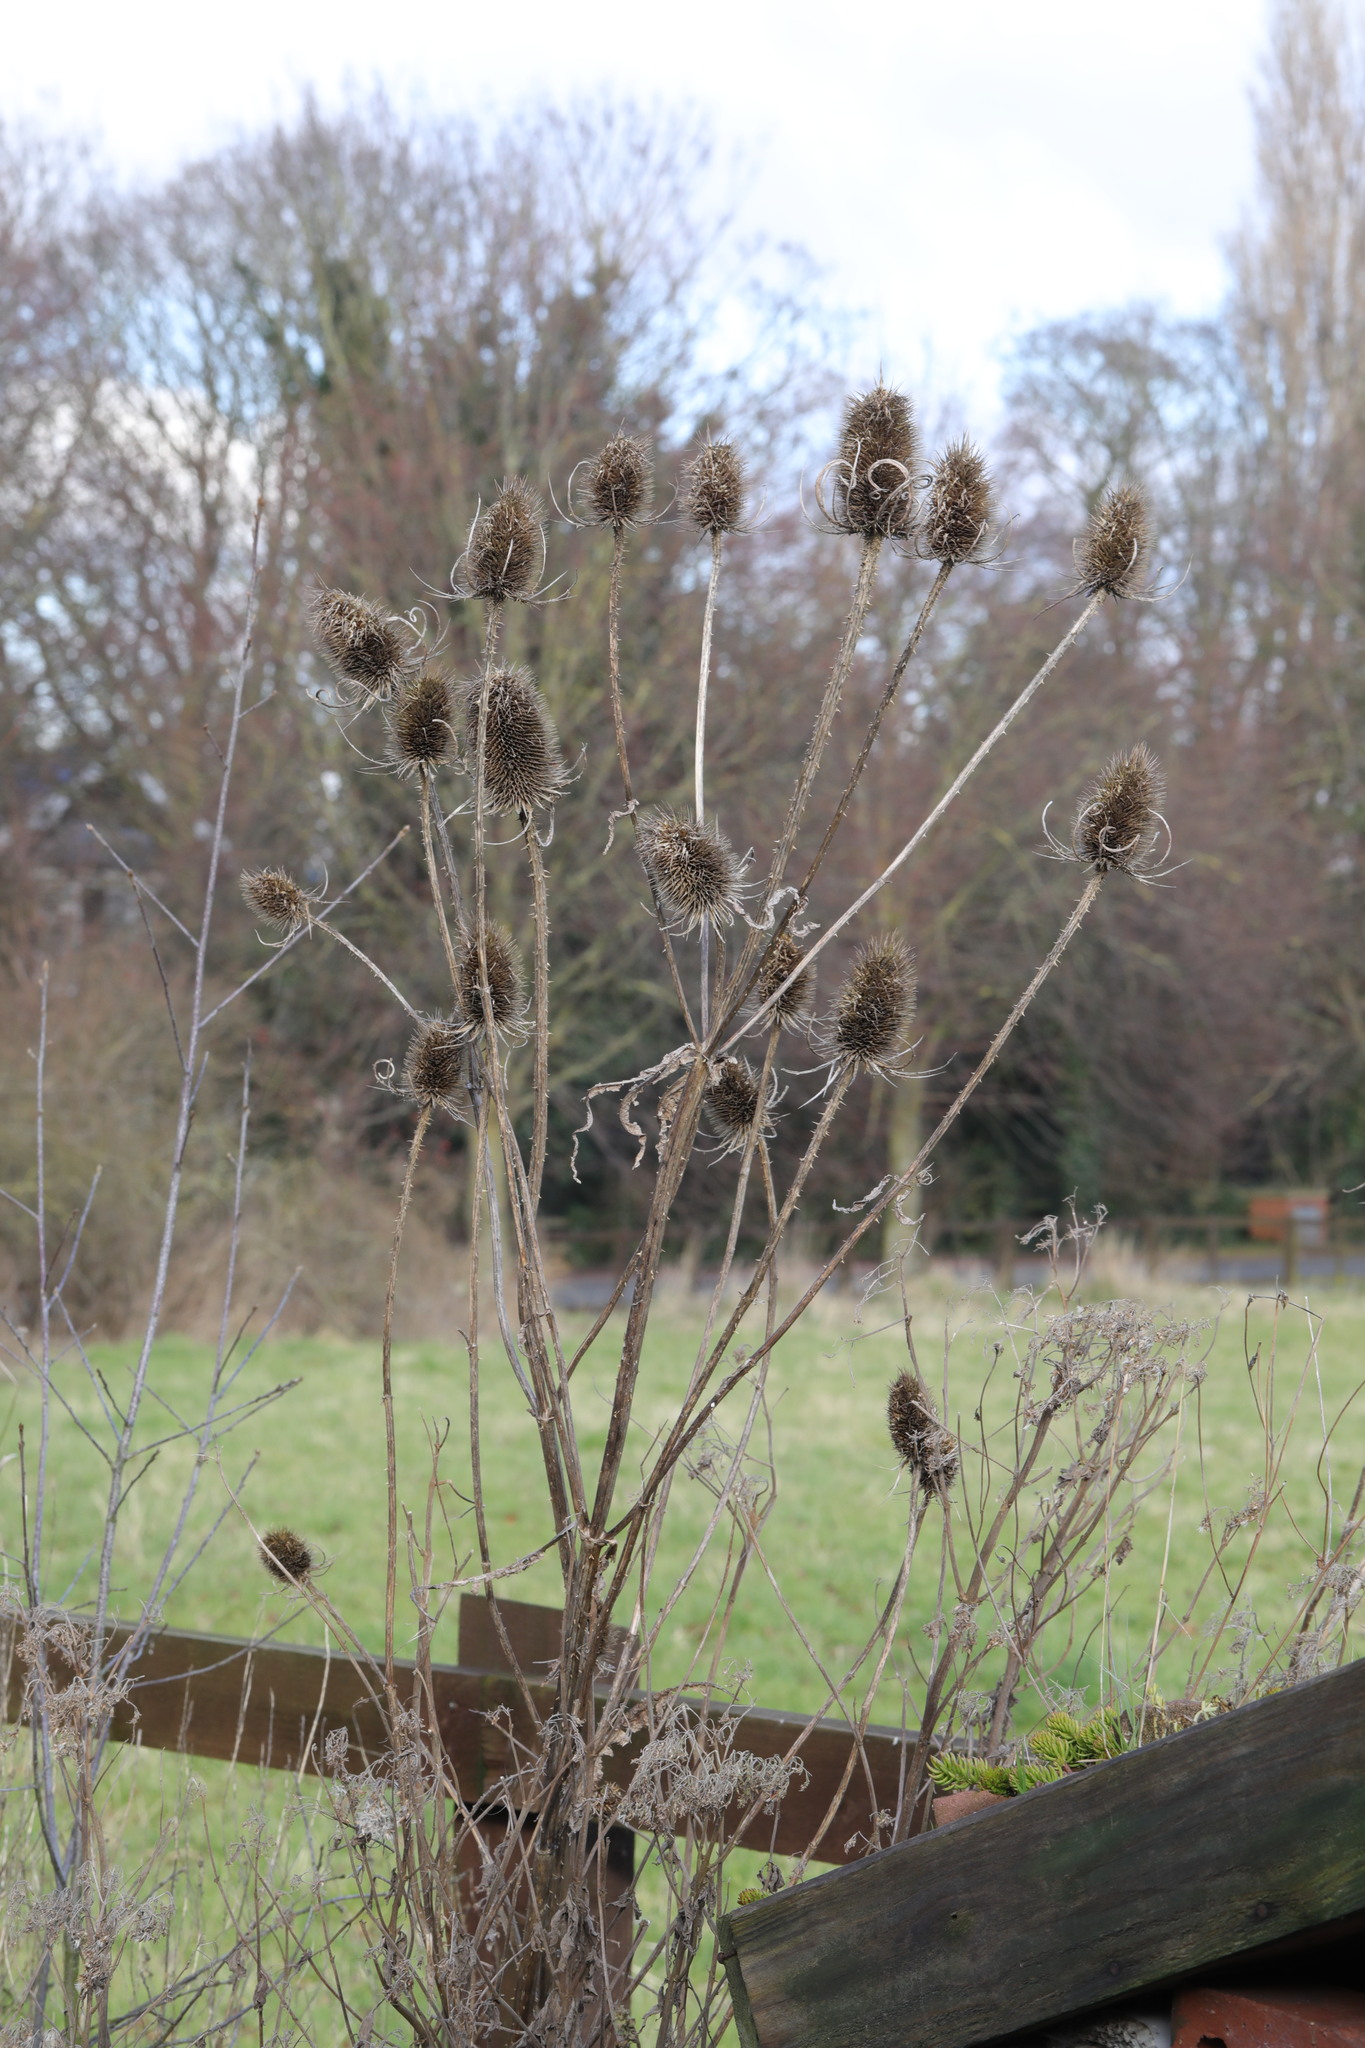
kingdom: Plantae
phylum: Tracheophyta
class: Magnoliopsida
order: Dipsacales
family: Caprifoliaceae
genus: Dipsacus
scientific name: Dipsacus fullonum
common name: Teasel
